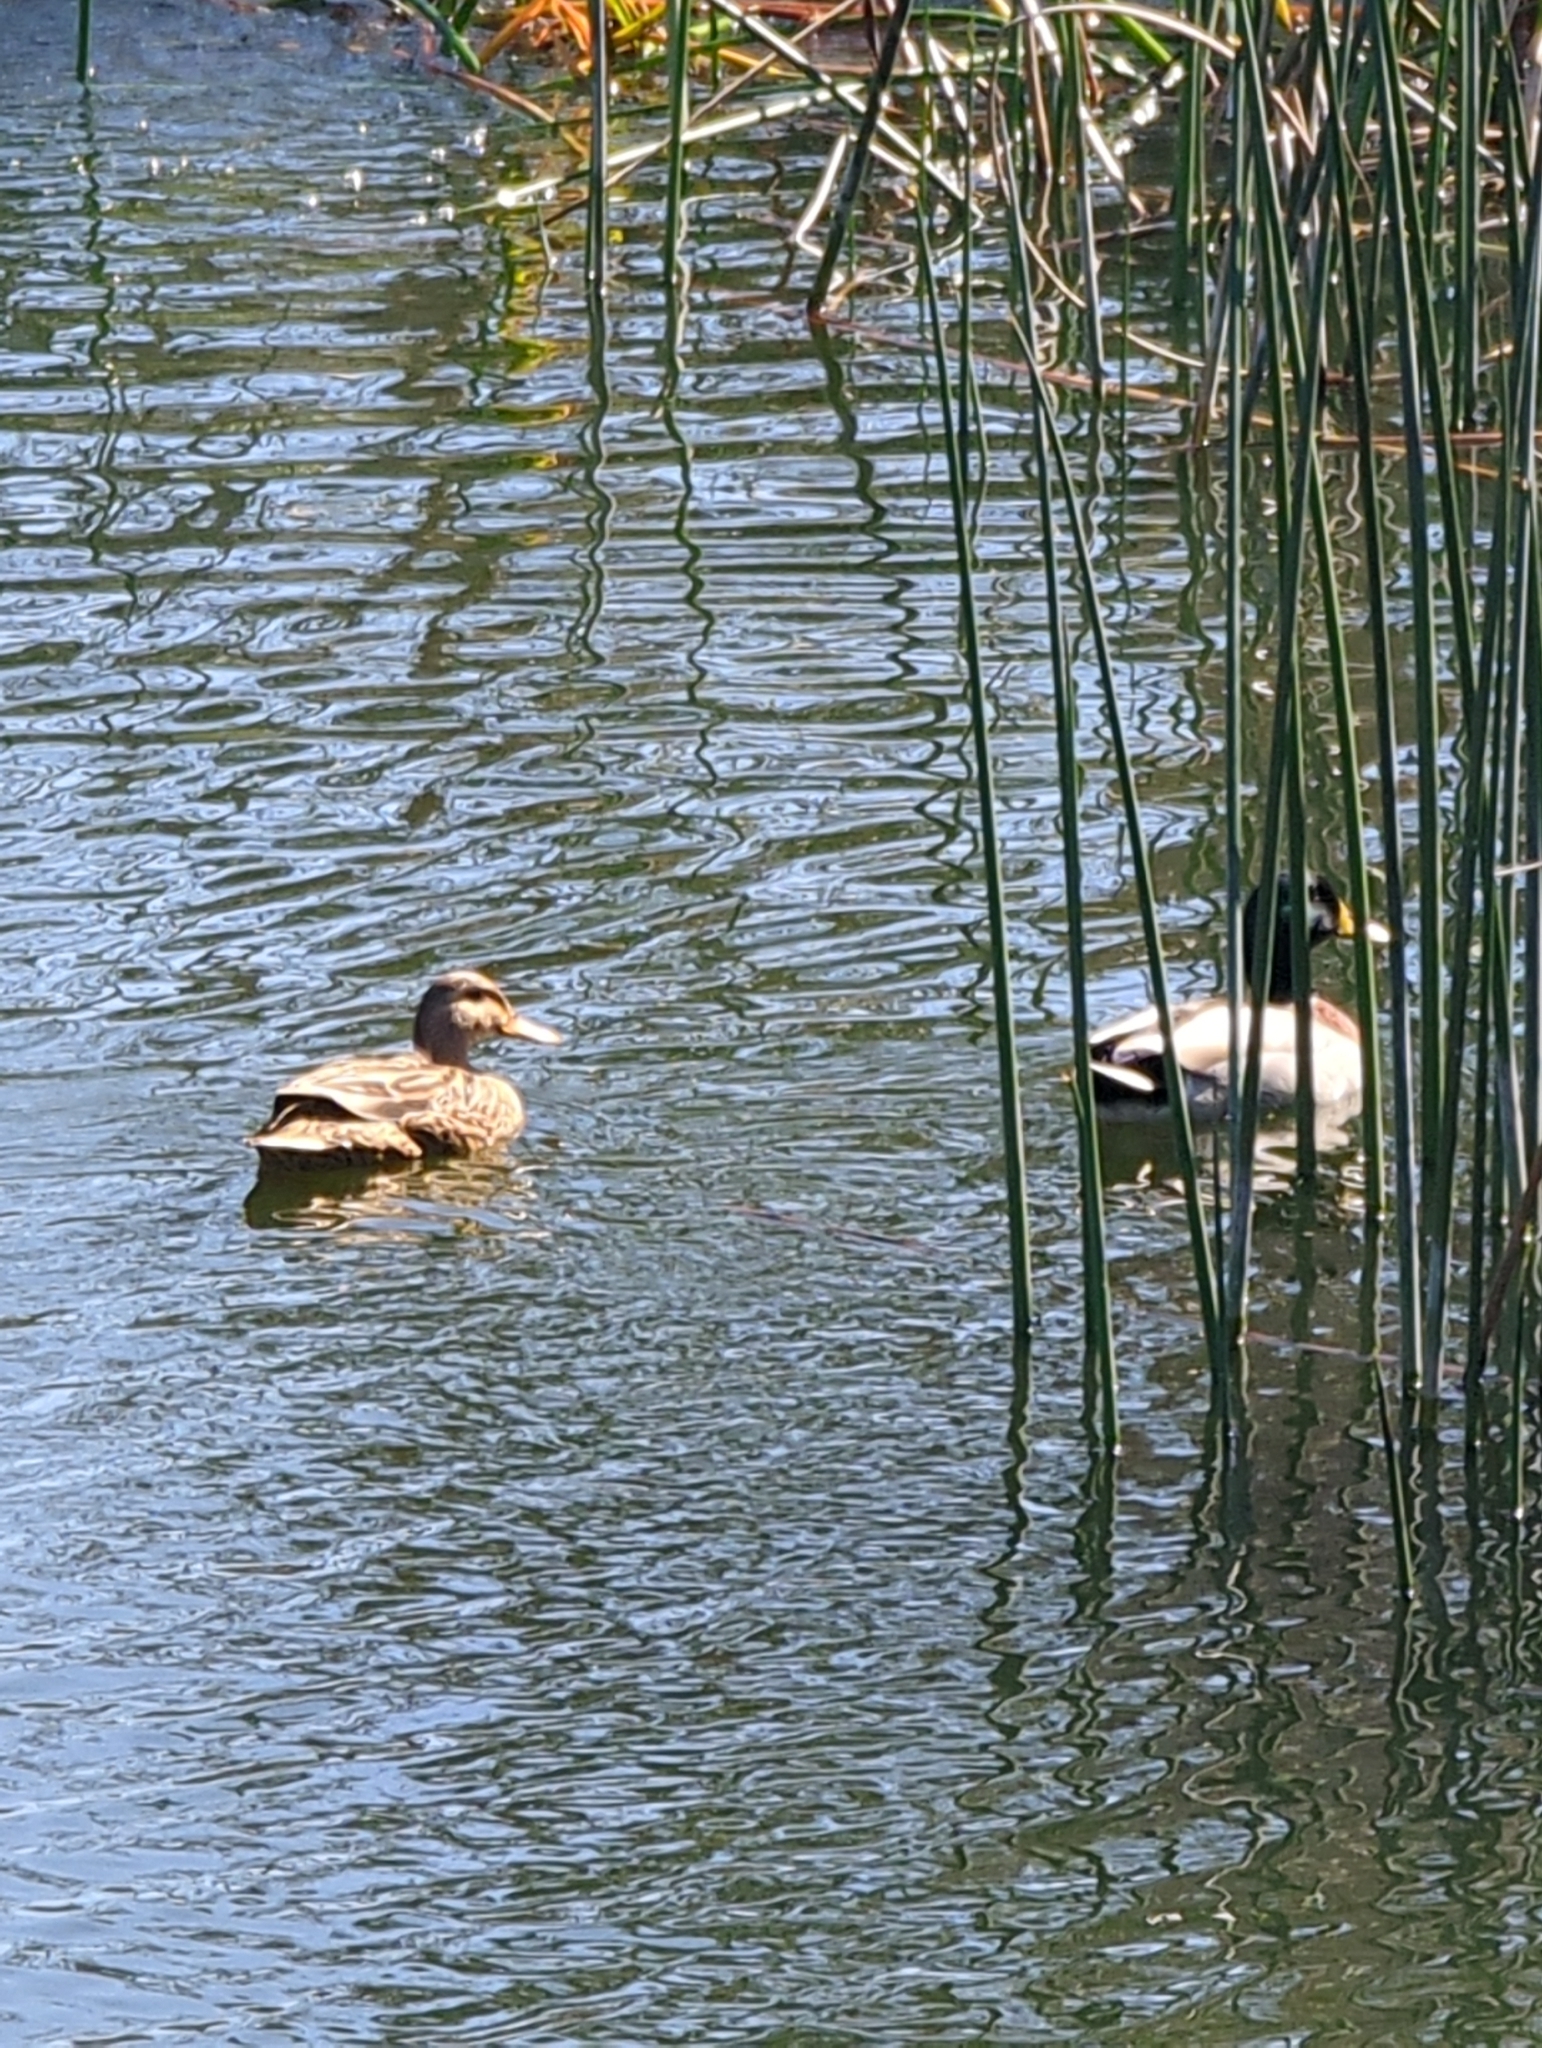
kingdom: Animalia
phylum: Chordata
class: Aves
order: Anseriformes
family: Anatidae
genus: Anas
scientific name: Anas platyrhynchos
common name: Mallard
